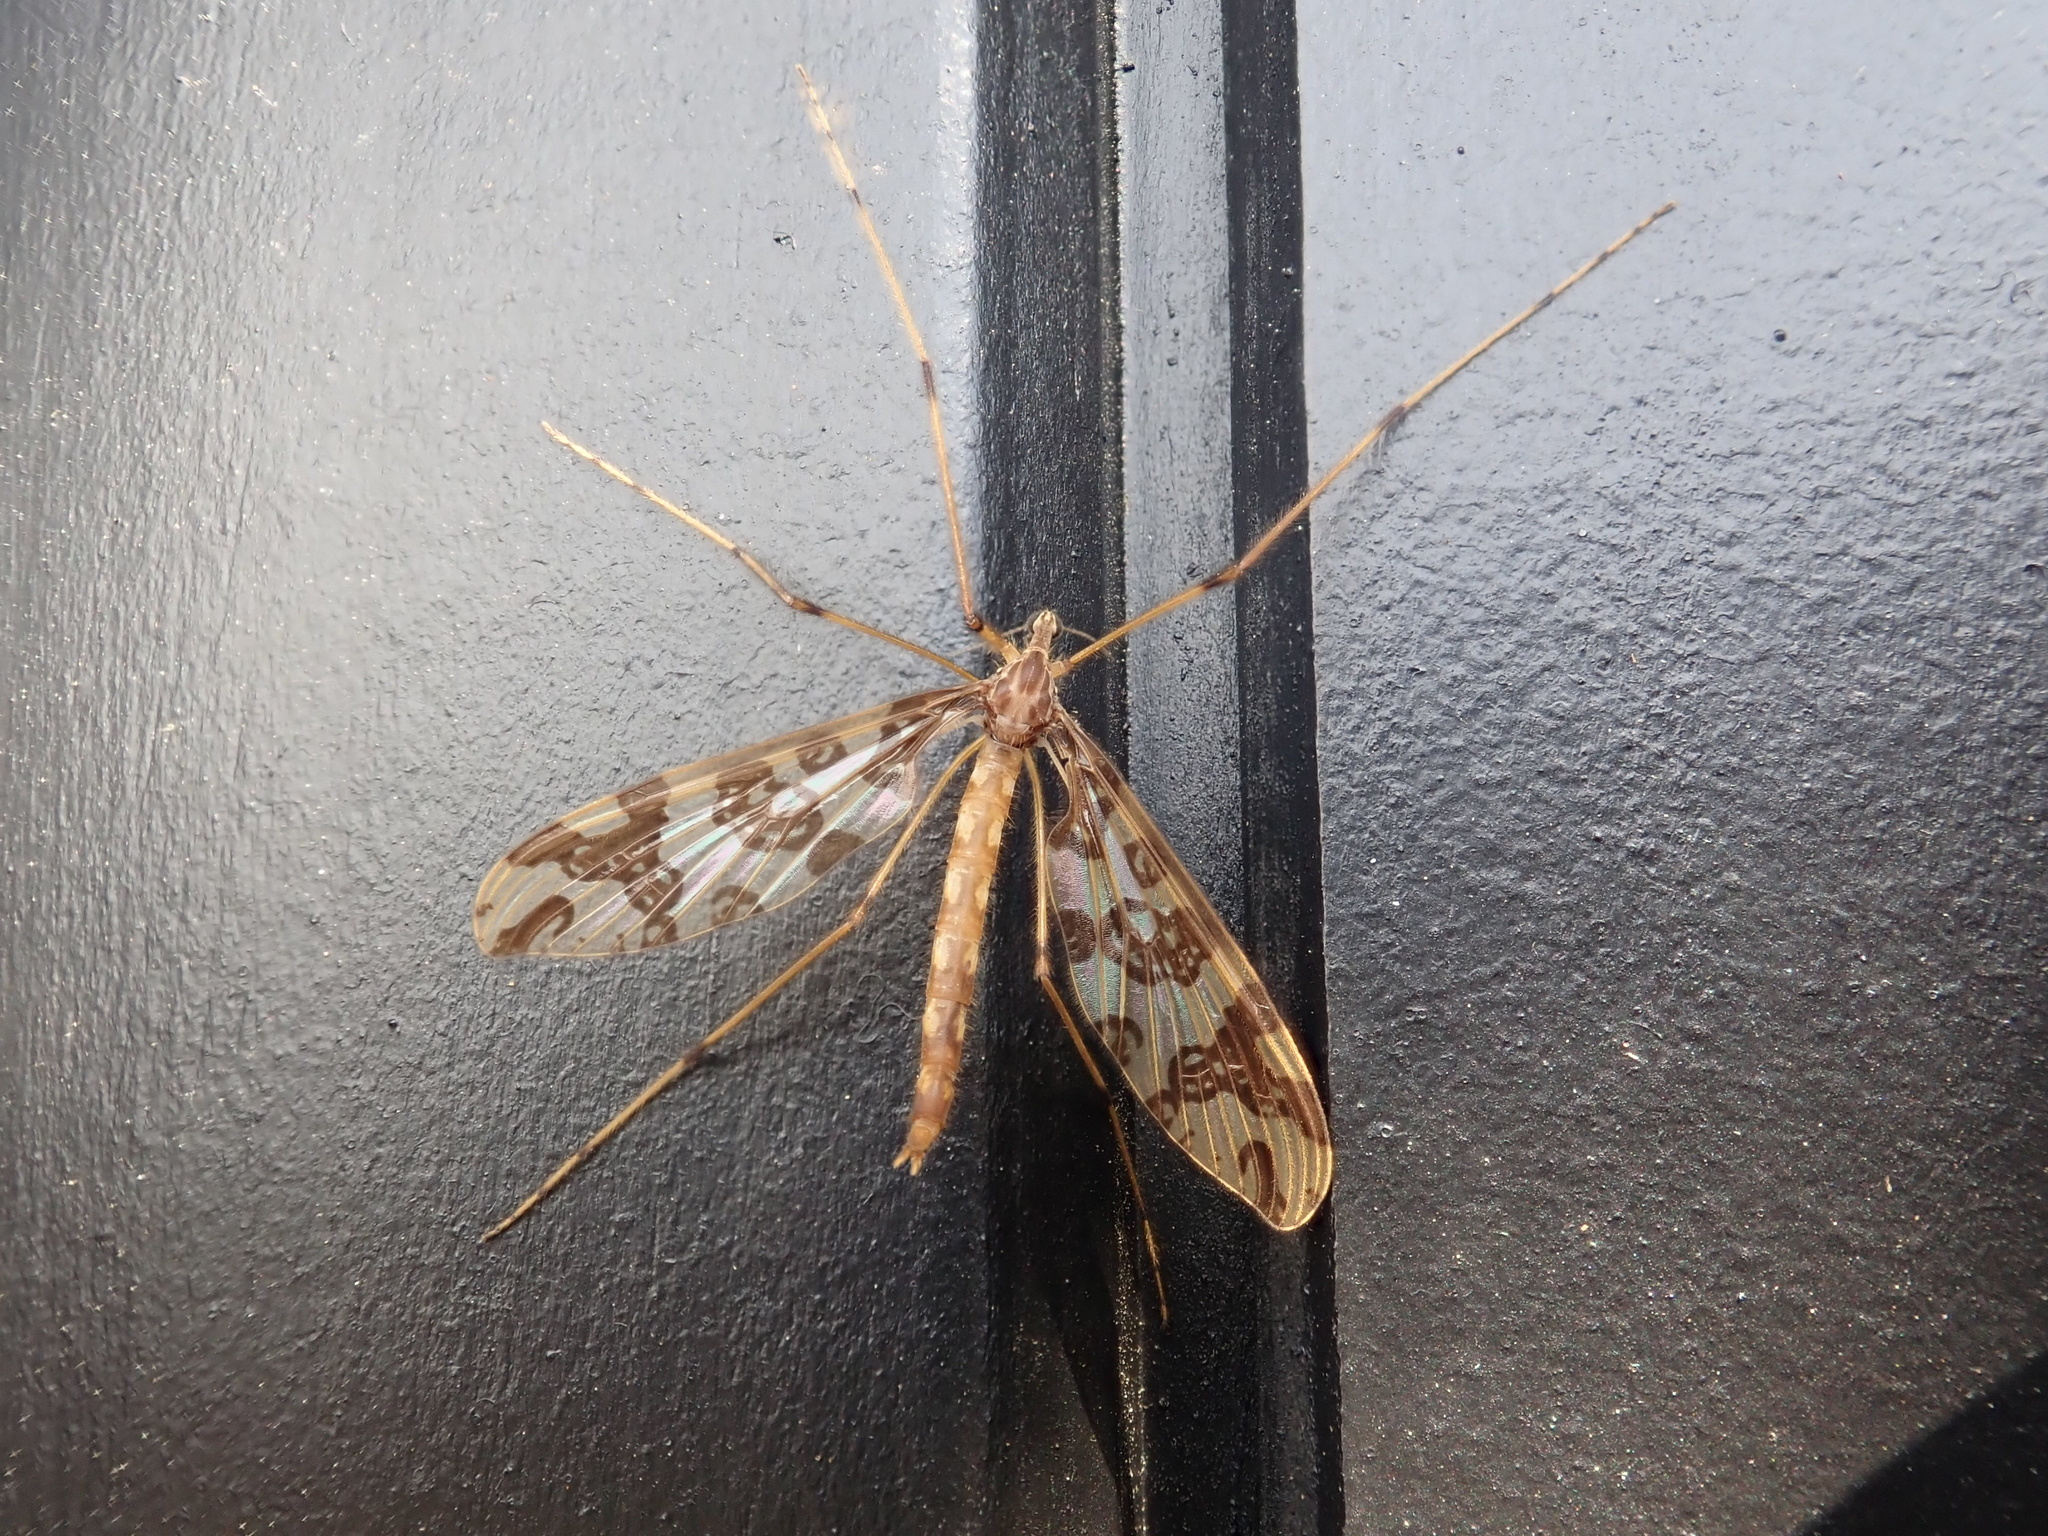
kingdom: Animalia
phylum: Arthropoda
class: Insecta
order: Diptera
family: Tanyderidae
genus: Tanyderus
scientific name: Tanyderus annuliferus
